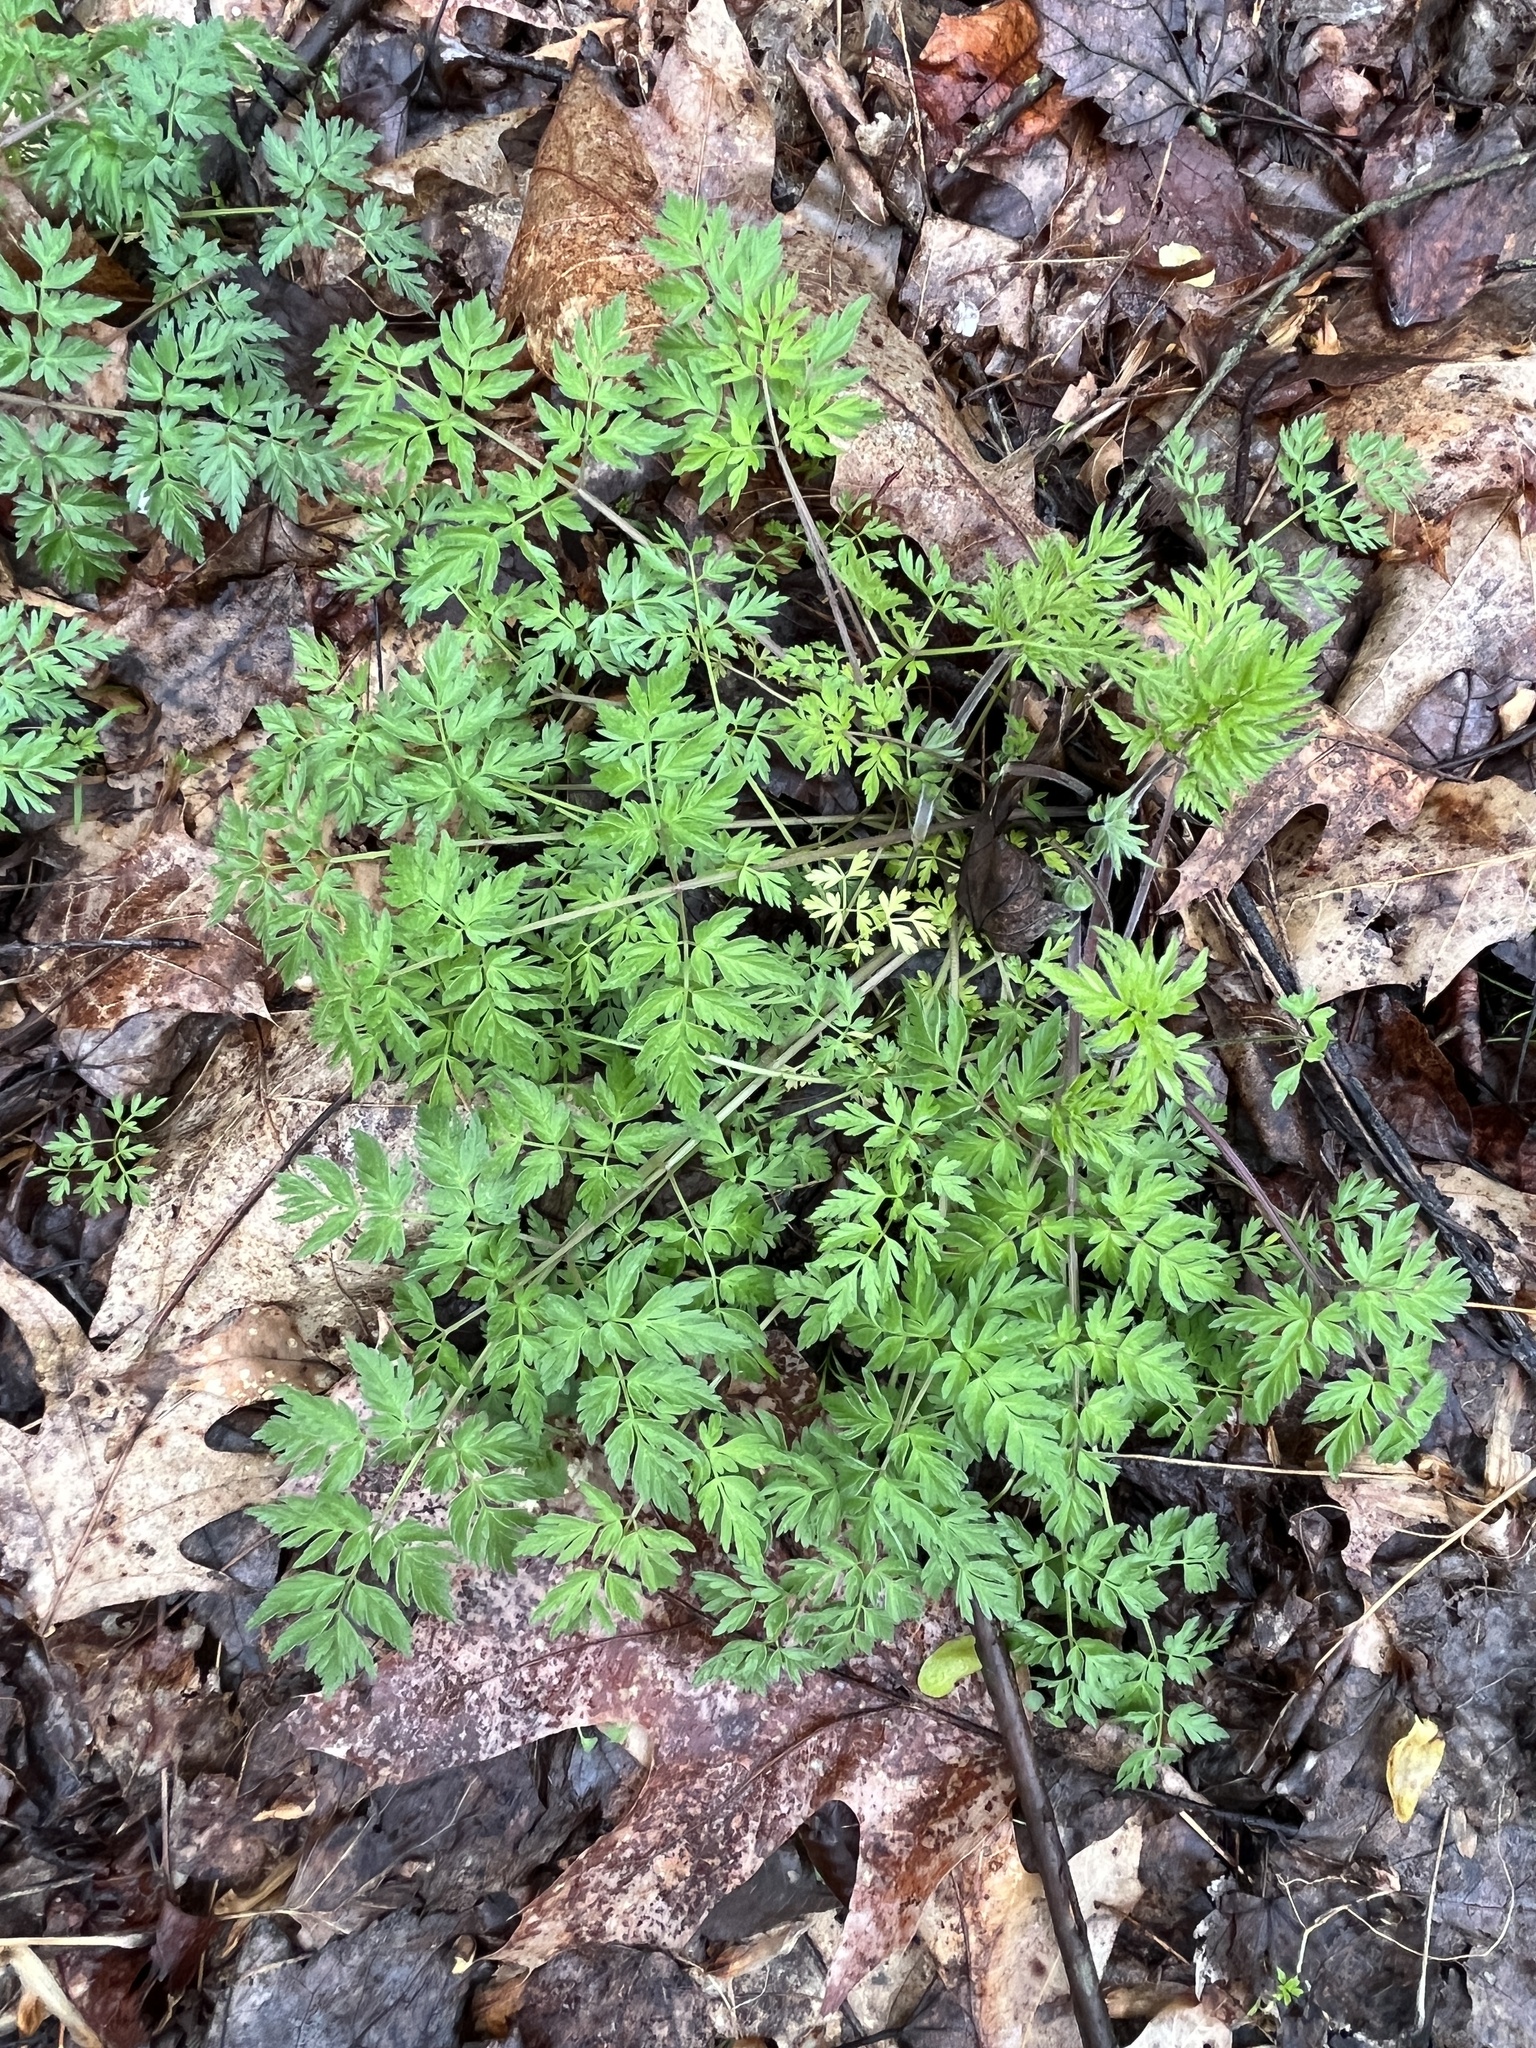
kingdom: Plantae
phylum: Tracheophyta
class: Magnoliopsida
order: Apiales
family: Apiaceae
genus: Conium
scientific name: Conium maculatum
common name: Hemlock
